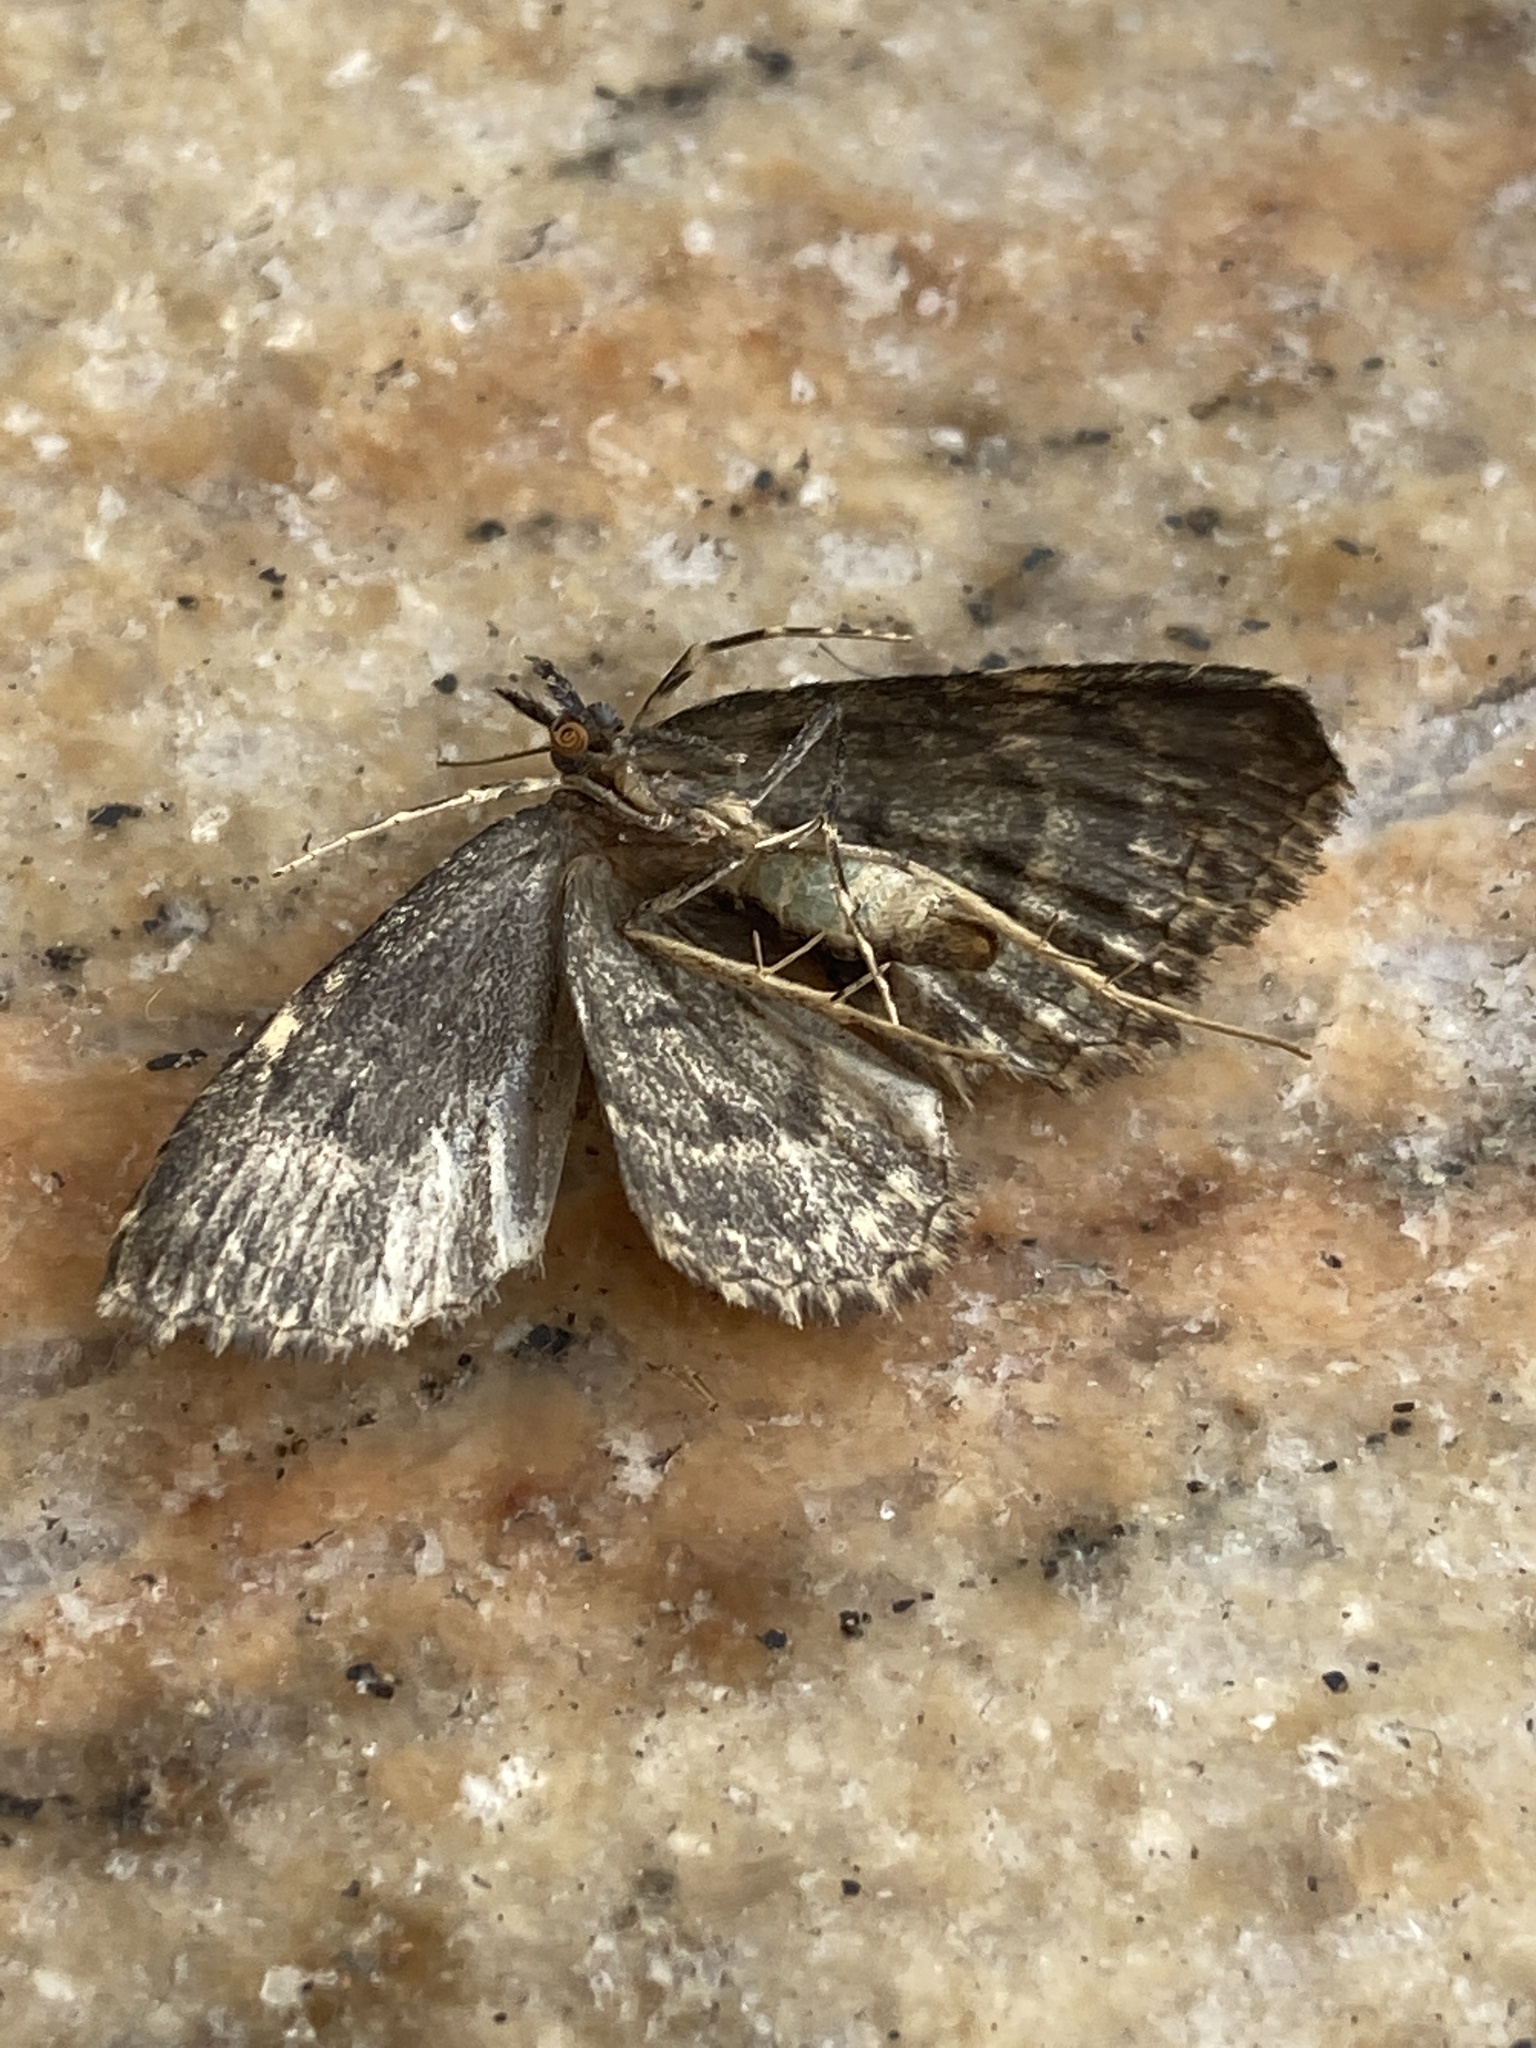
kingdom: Animalia
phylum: Arthropoda
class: Insecta
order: Lepidoptera
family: Erebidae
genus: Parascotia
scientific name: Parascotia fuliginaria
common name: Waved black
